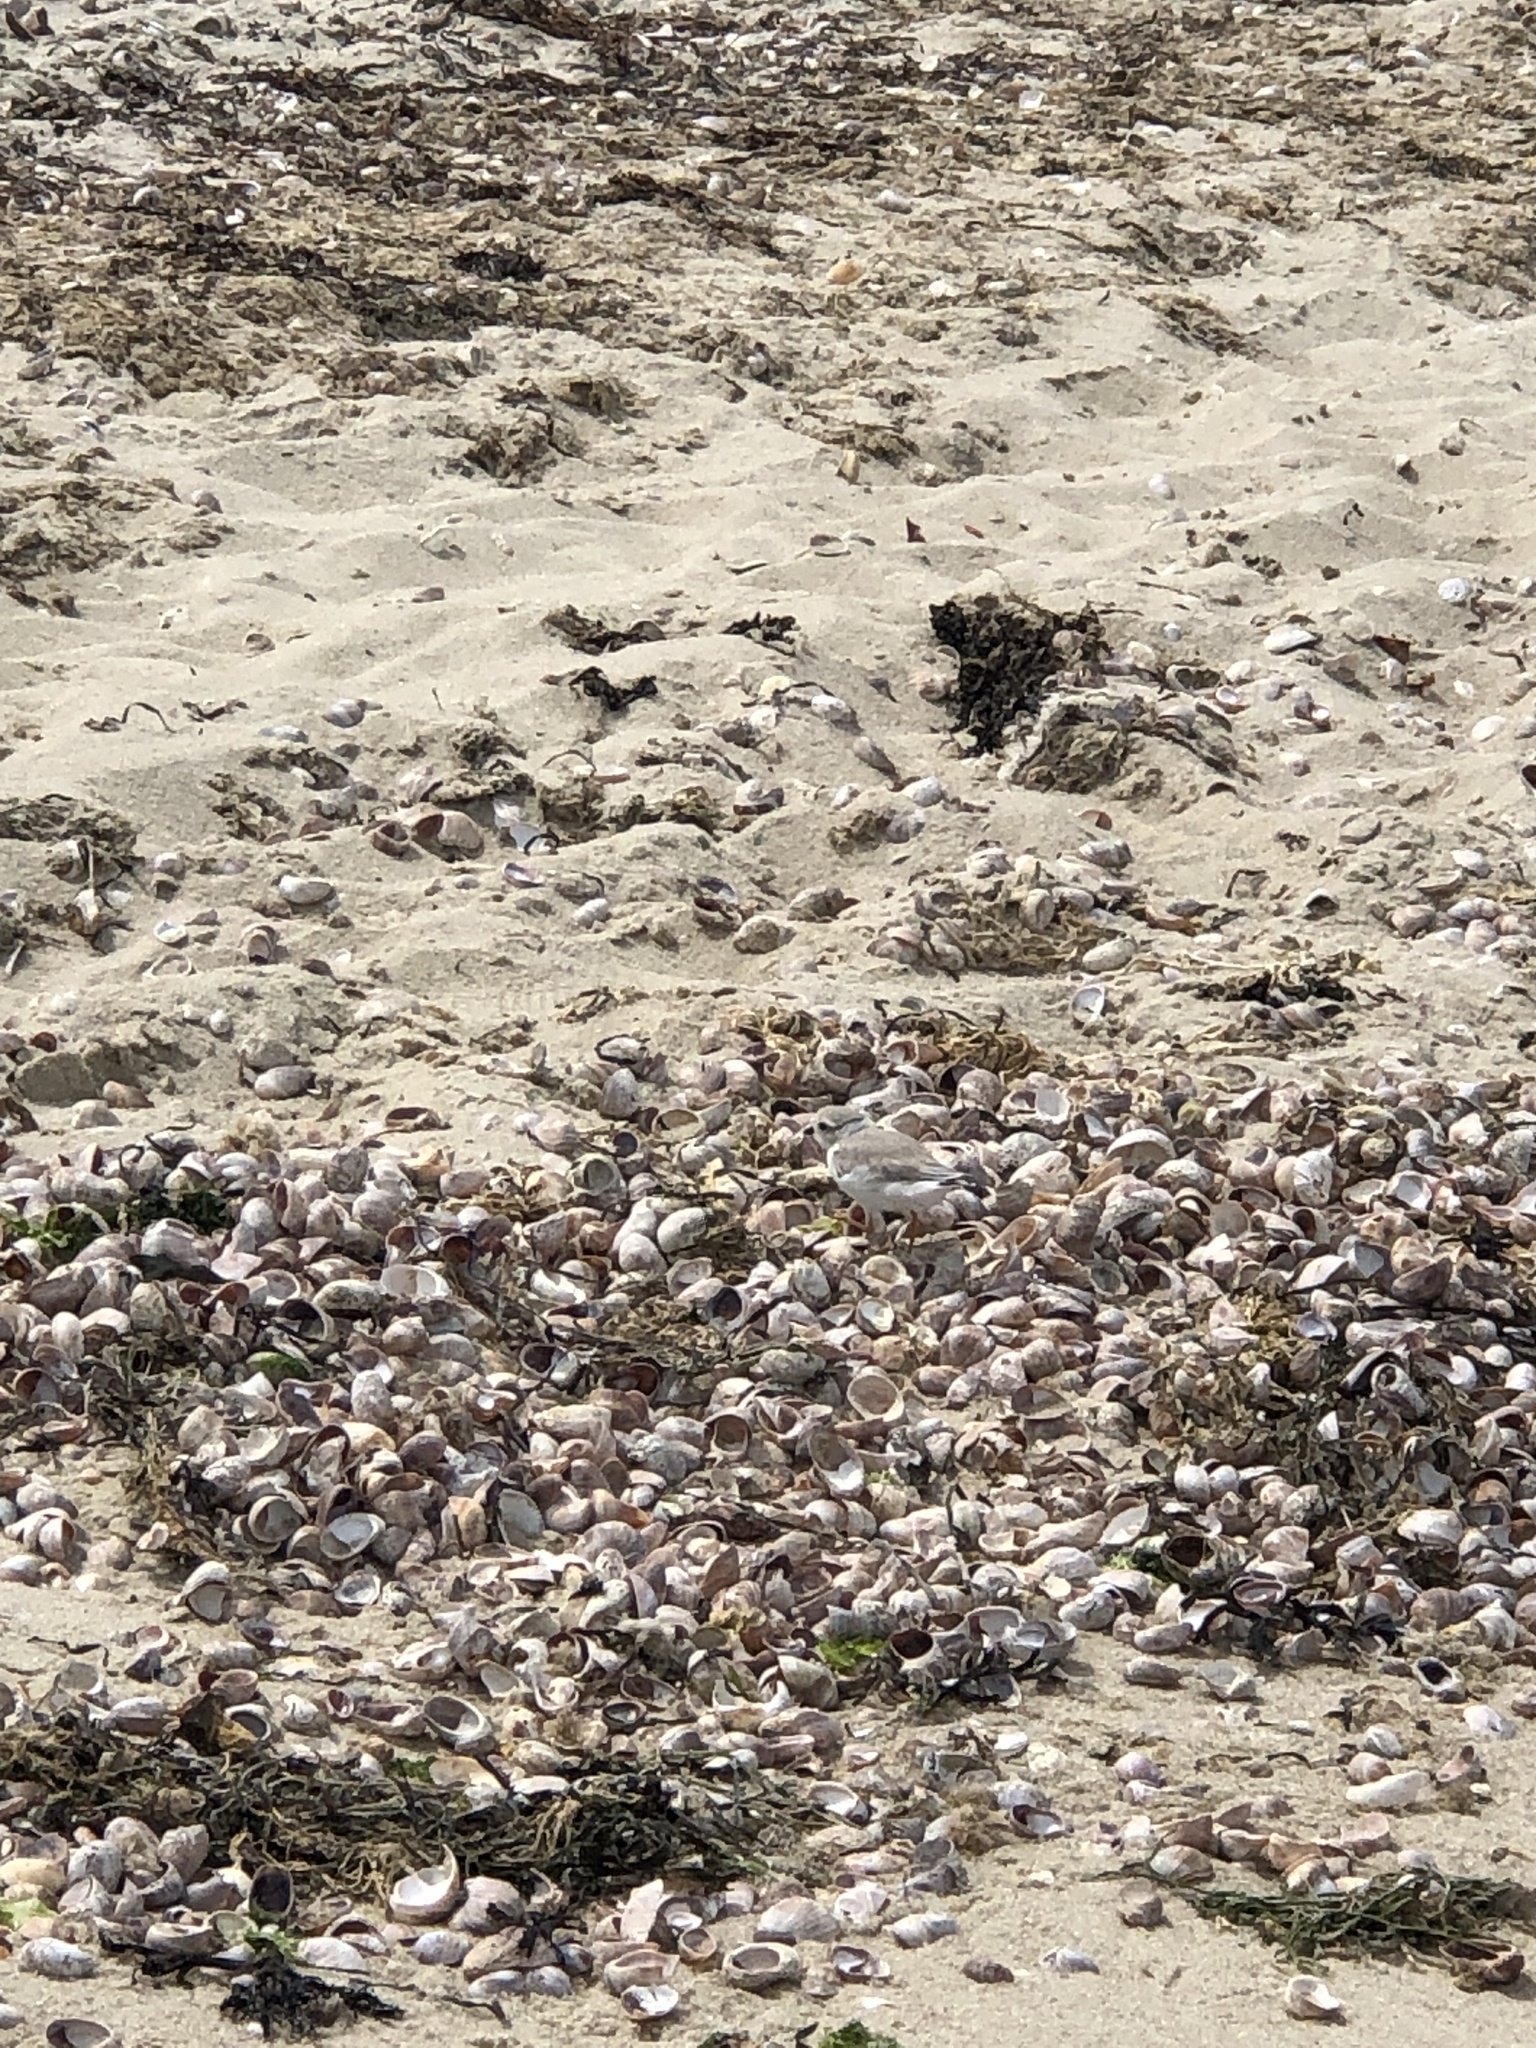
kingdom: Animalia
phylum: Chordata
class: Aves
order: Charadriiformes
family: Charadriidae
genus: Charadrius
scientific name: Charadrius melodus
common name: Piping plover
